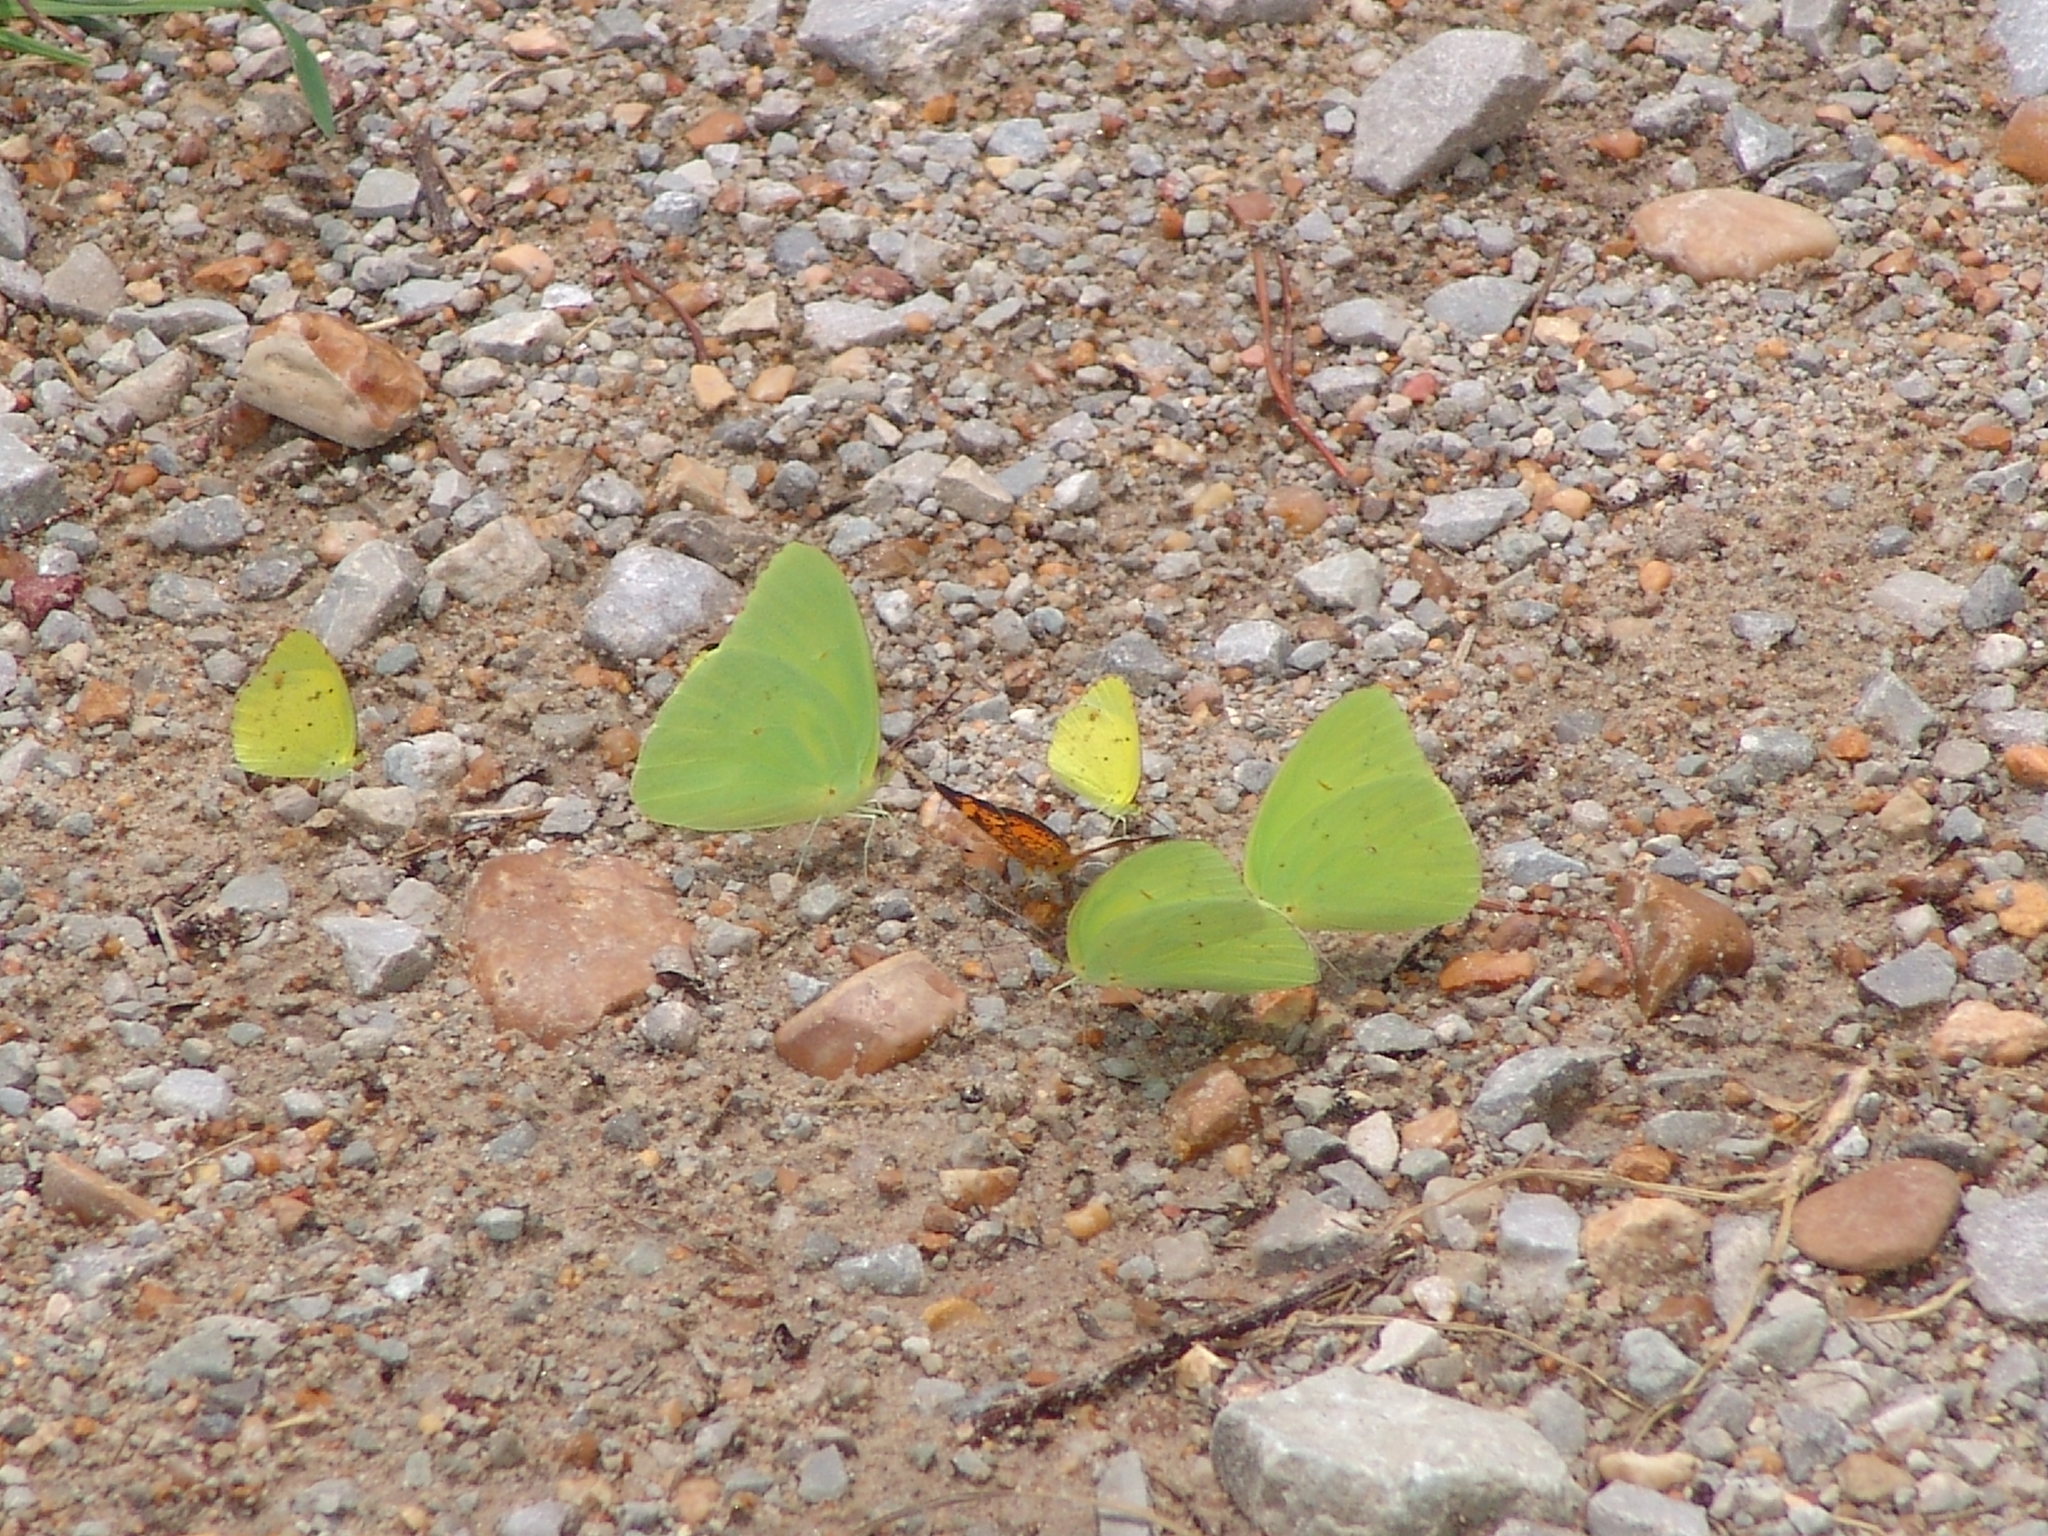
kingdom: Animalia
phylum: Arthropoda
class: Insecta
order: Lepidoptera
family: Pieridae
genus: Phoebis
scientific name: Phoebis sennae
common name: Cloudless sulphur
